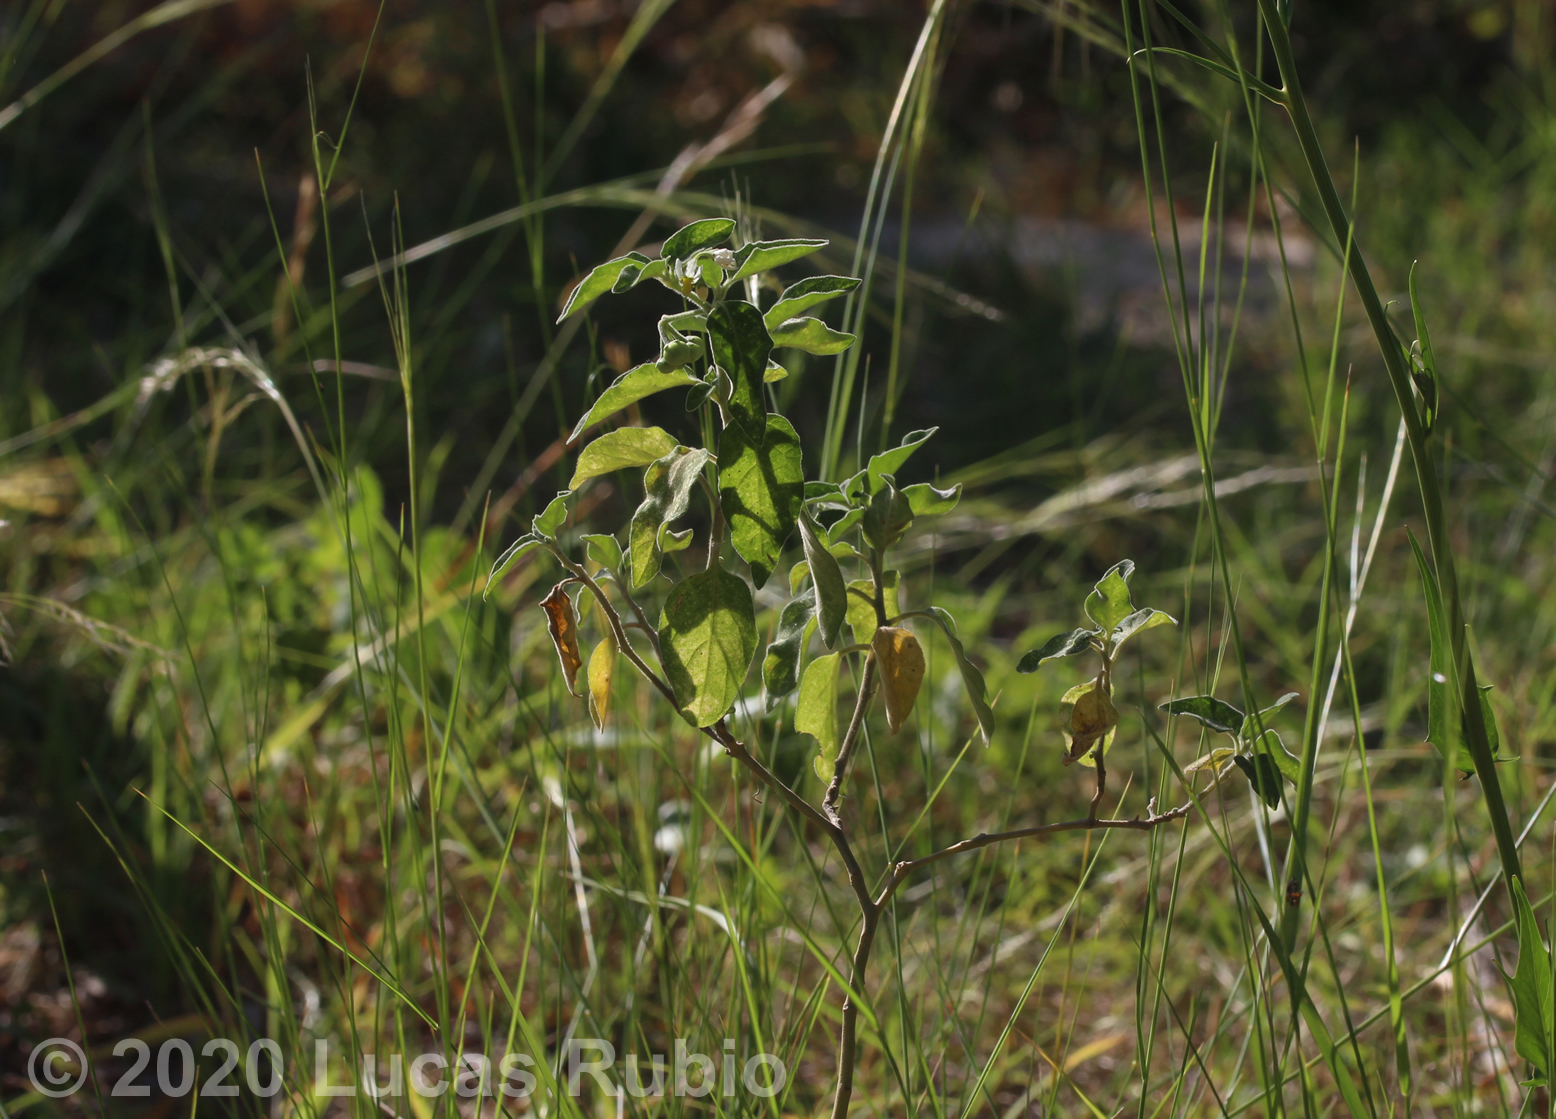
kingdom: Plantae
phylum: Tracheophyta
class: Magnoliopsida
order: Solanales
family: Solanaceae
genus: Solanum
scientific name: Solanum chenopodioides
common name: Tall nightshade
